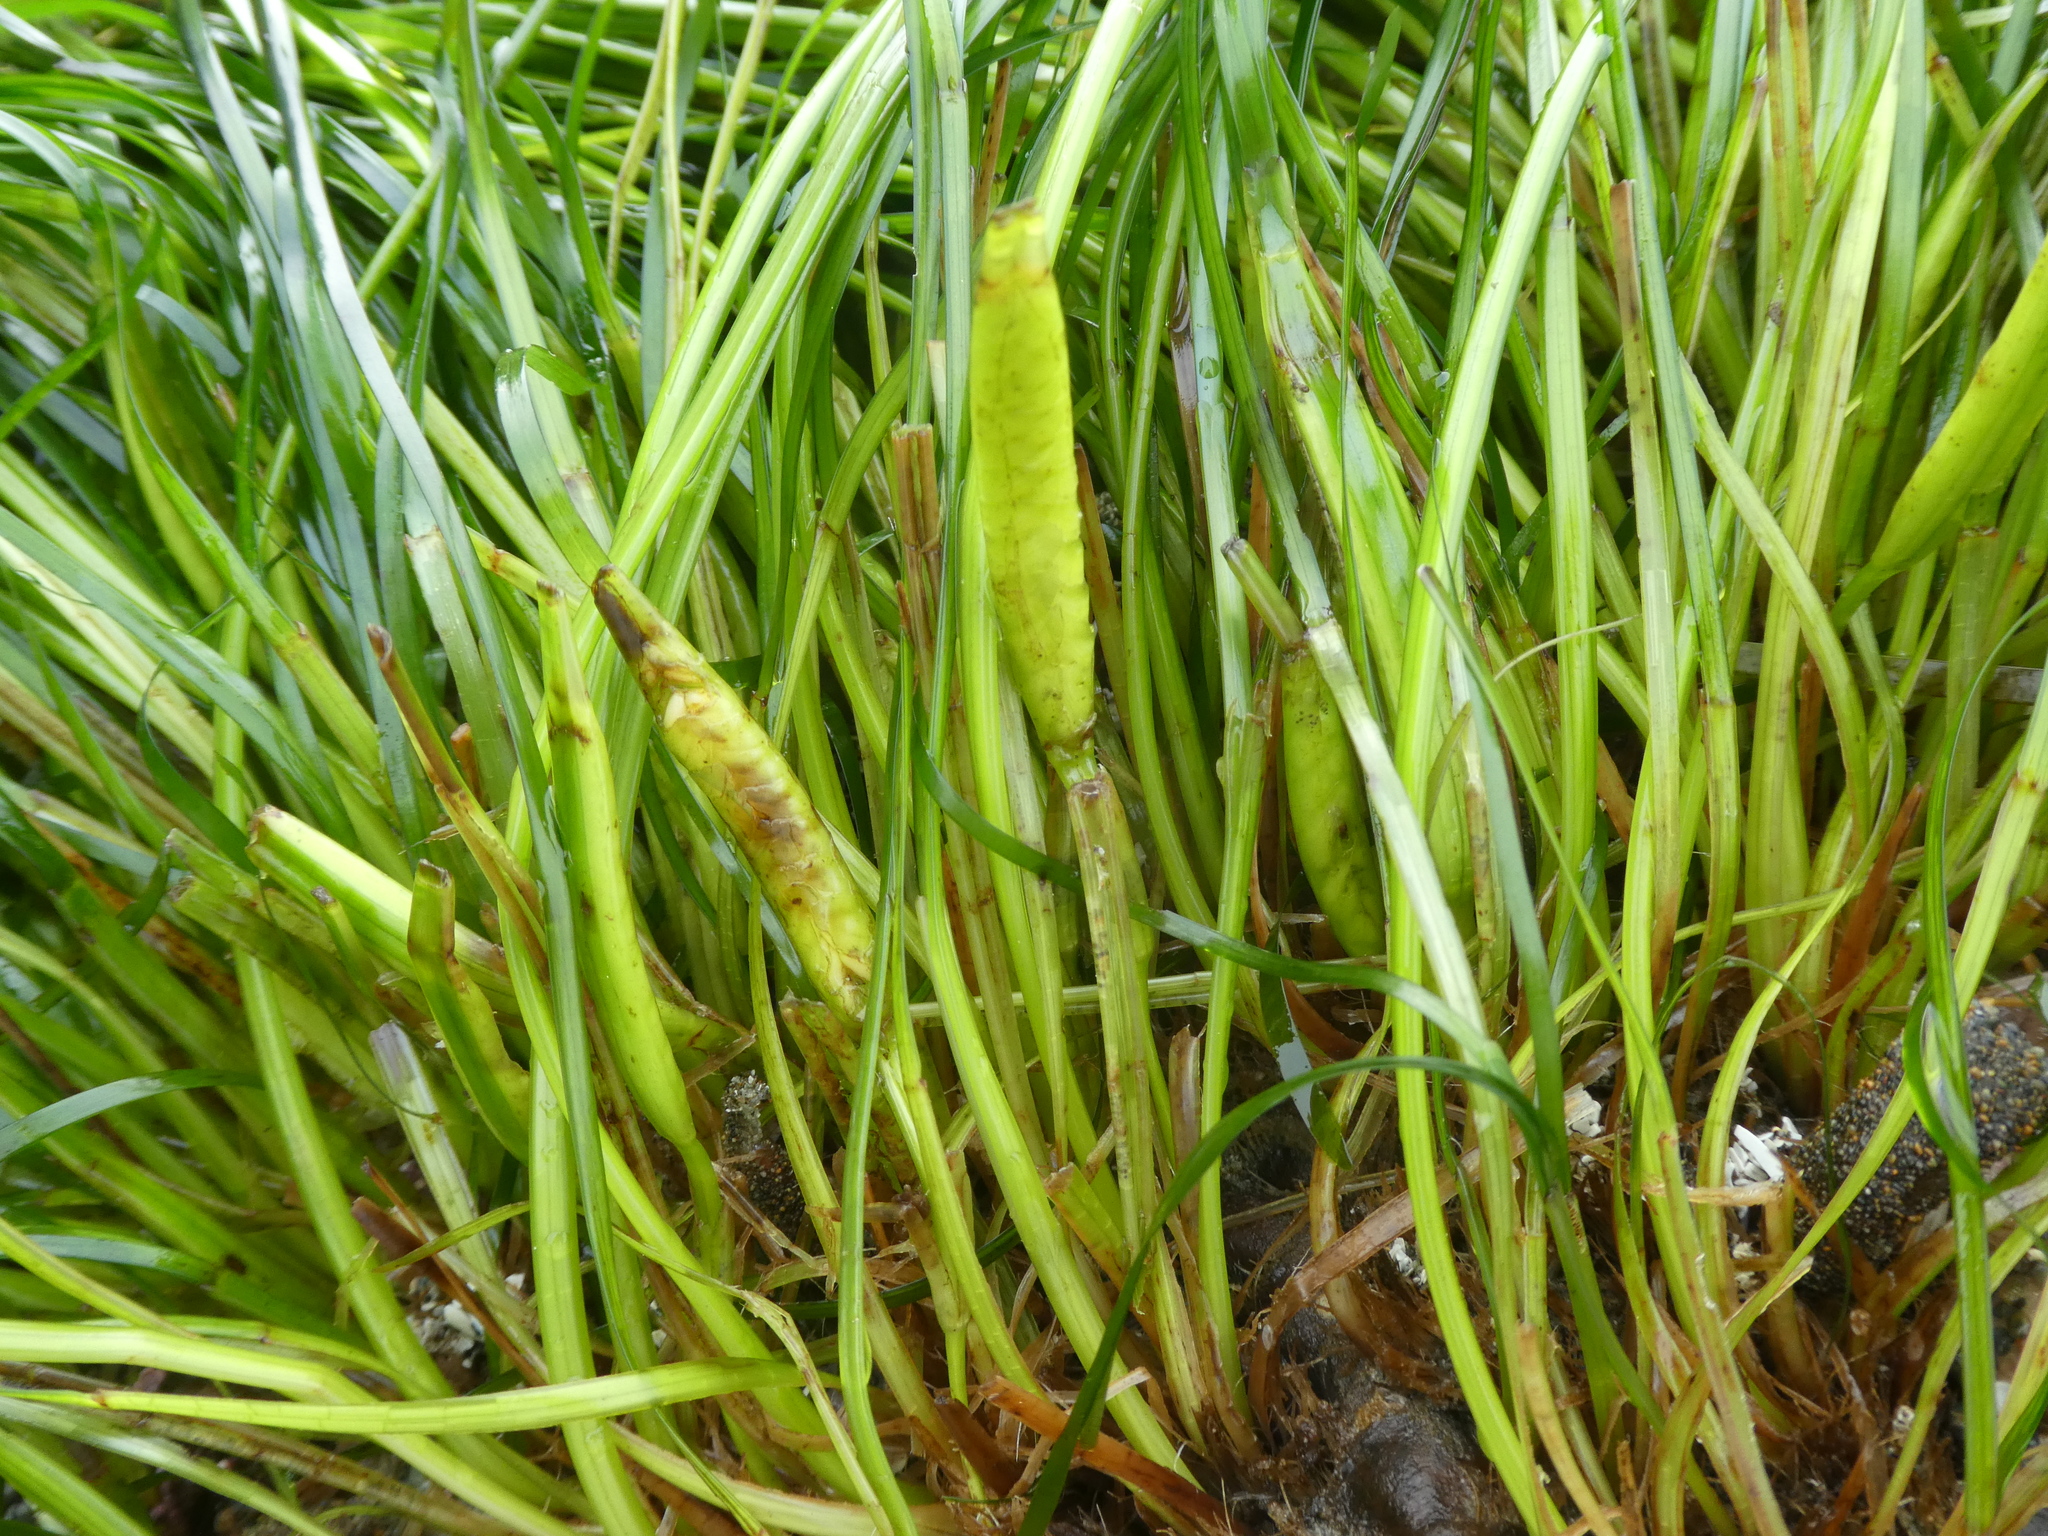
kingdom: Plantae
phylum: Tracheophyta
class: Liliopsida
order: Alismatales
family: Zosteraceae
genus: Phyllospadix
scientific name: Phyllospadix scouleri
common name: Species code: ps
